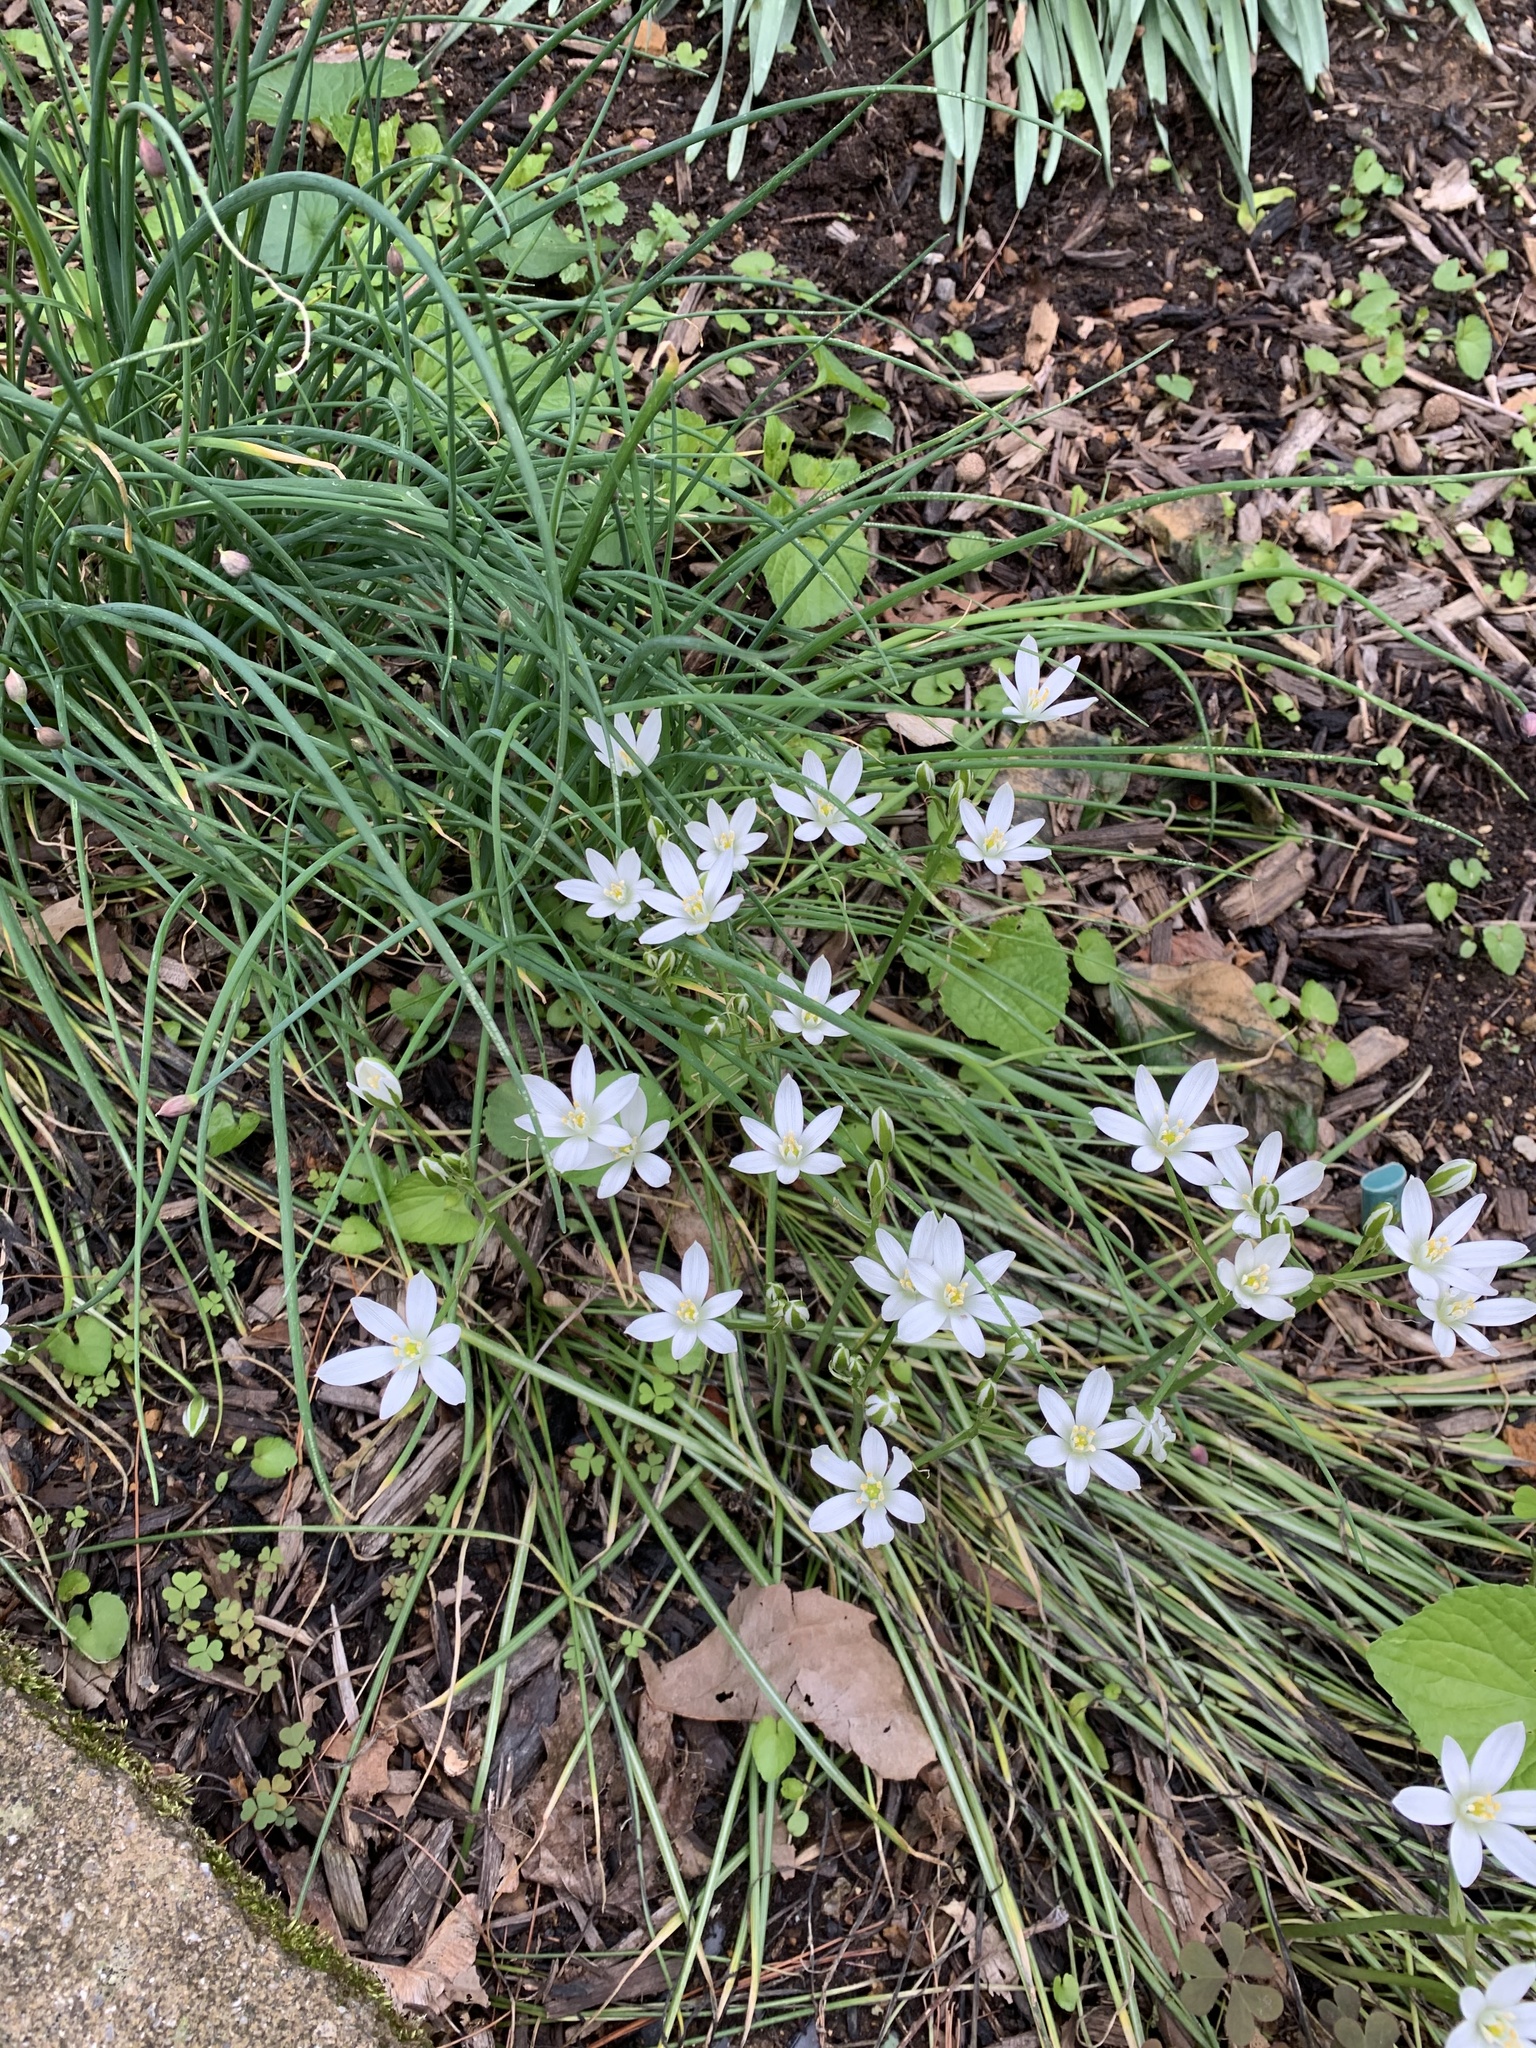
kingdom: Plantae
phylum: Tracheophyta
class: Liliopsida
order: Asparagales
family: Asparagaceae
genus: Ornithogalum
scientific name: Ornithogalum umbellatum
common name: Garden star-of-bethlehem
